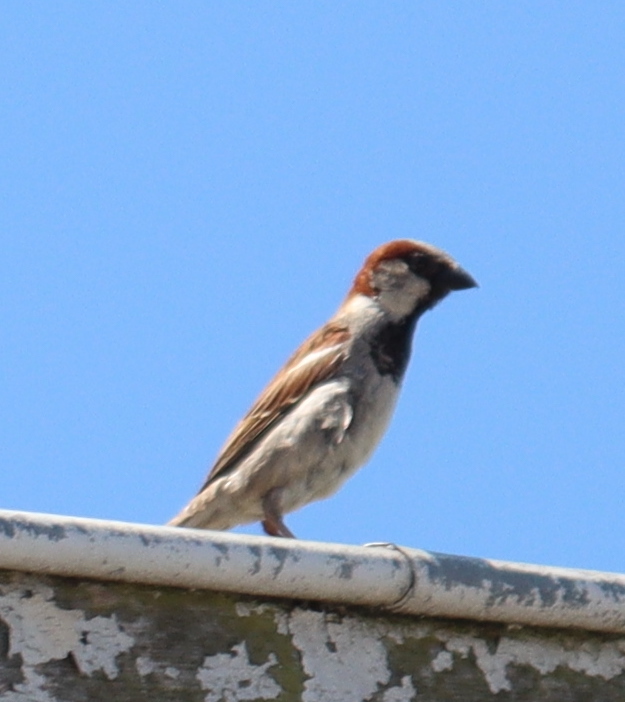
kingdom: Animalia
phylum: Chordata
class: Aves
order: Passeriformes
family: Passeridae
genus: Passer
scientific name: Passer domesticus
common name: House sparrow
